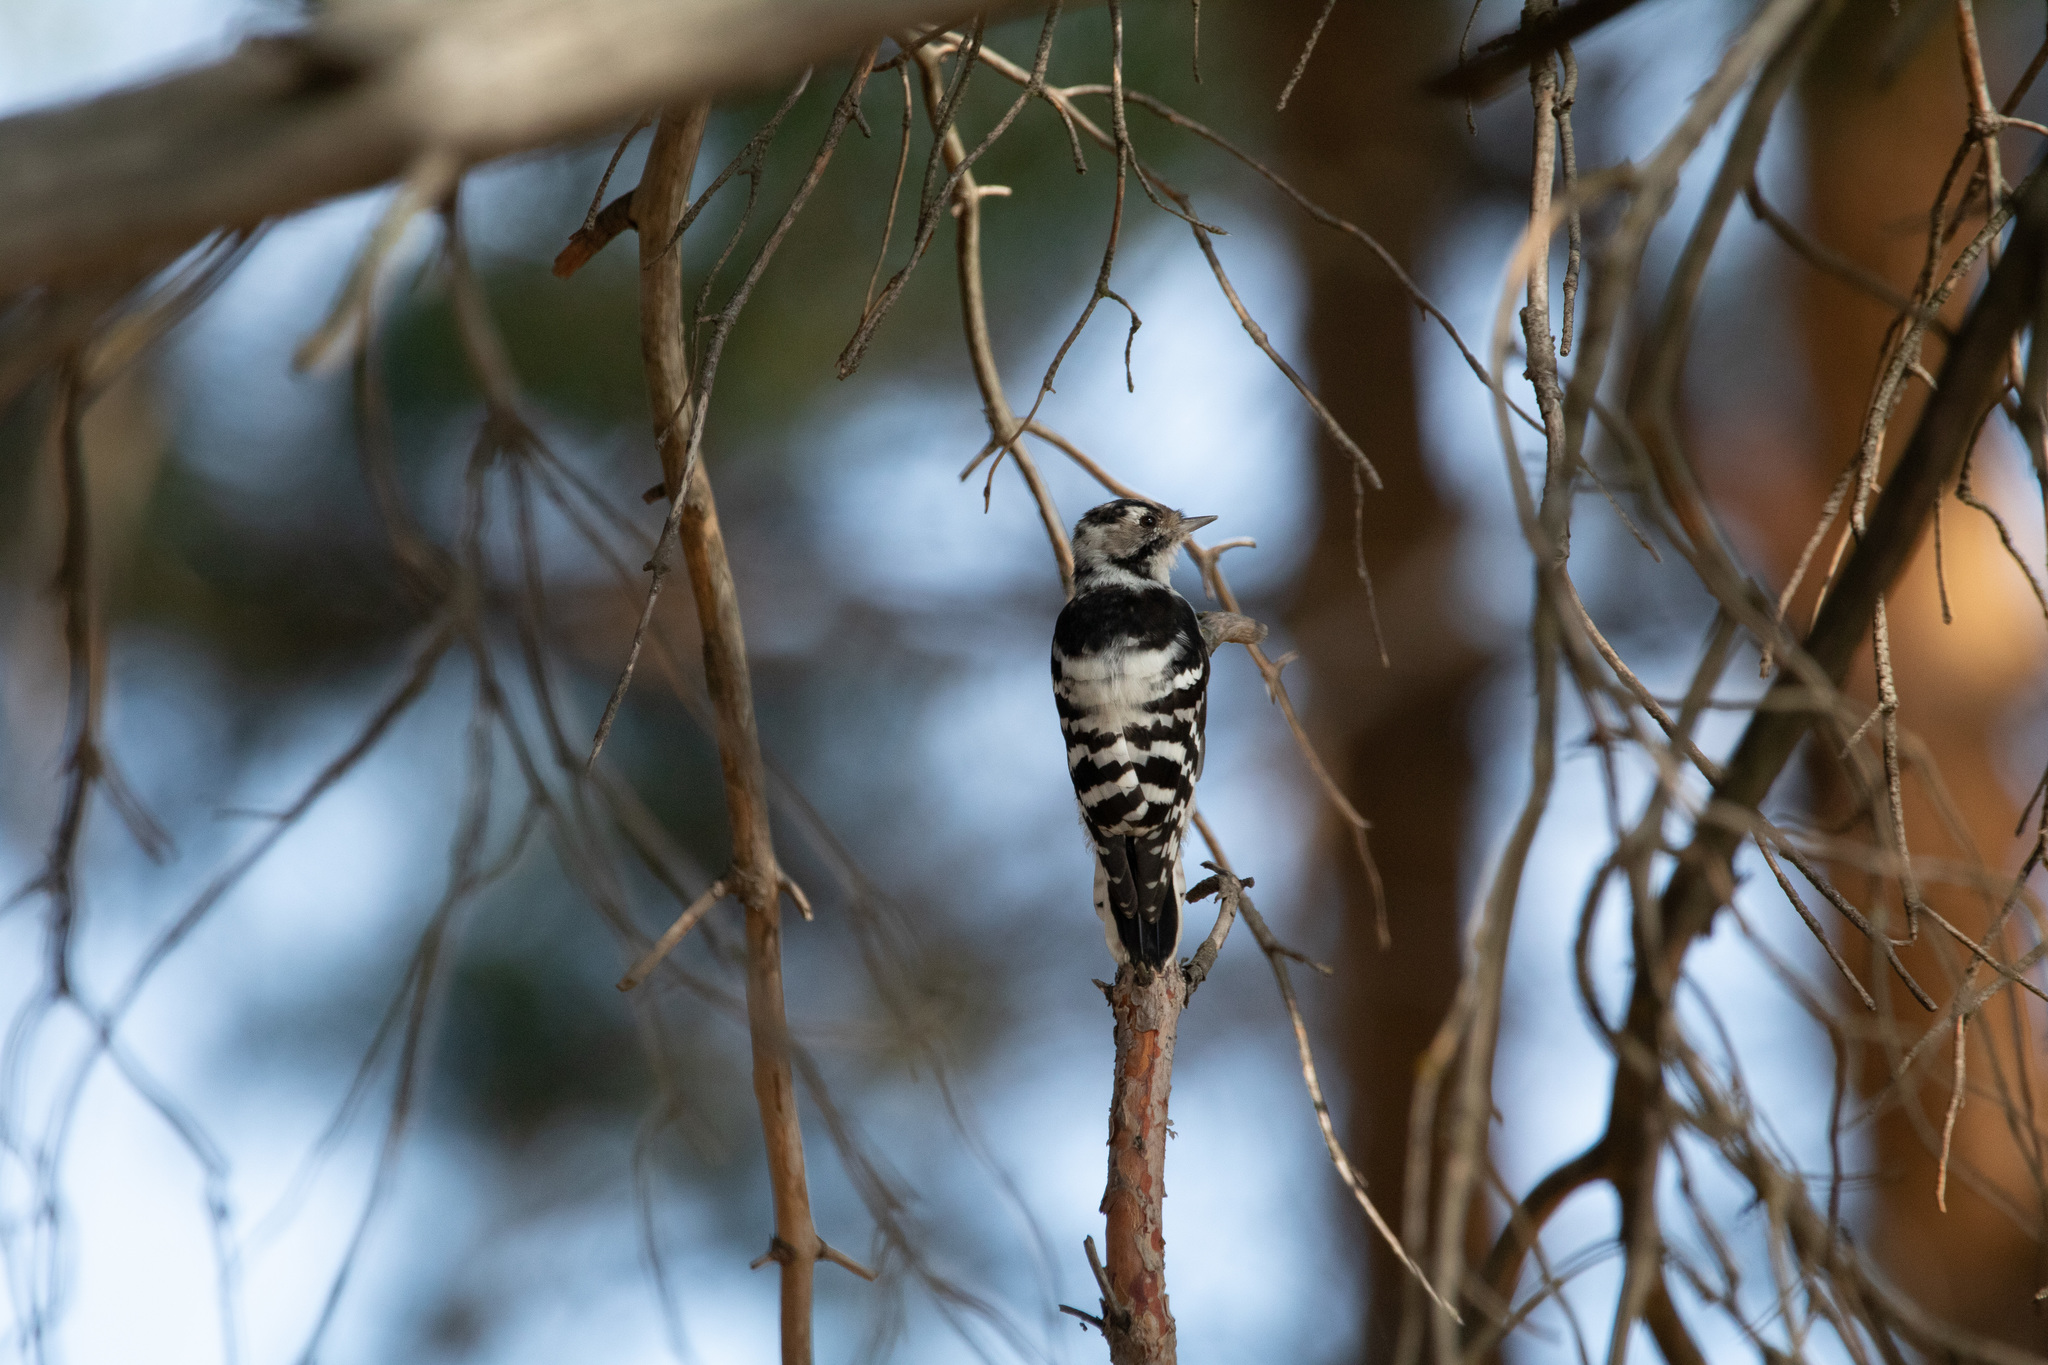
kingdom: Animalia
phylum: Chordata
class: Aves
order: Piciformes
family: Picidae
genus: Dryobates
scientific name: Dryobates minor
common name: Lesser spotted woodpecker
